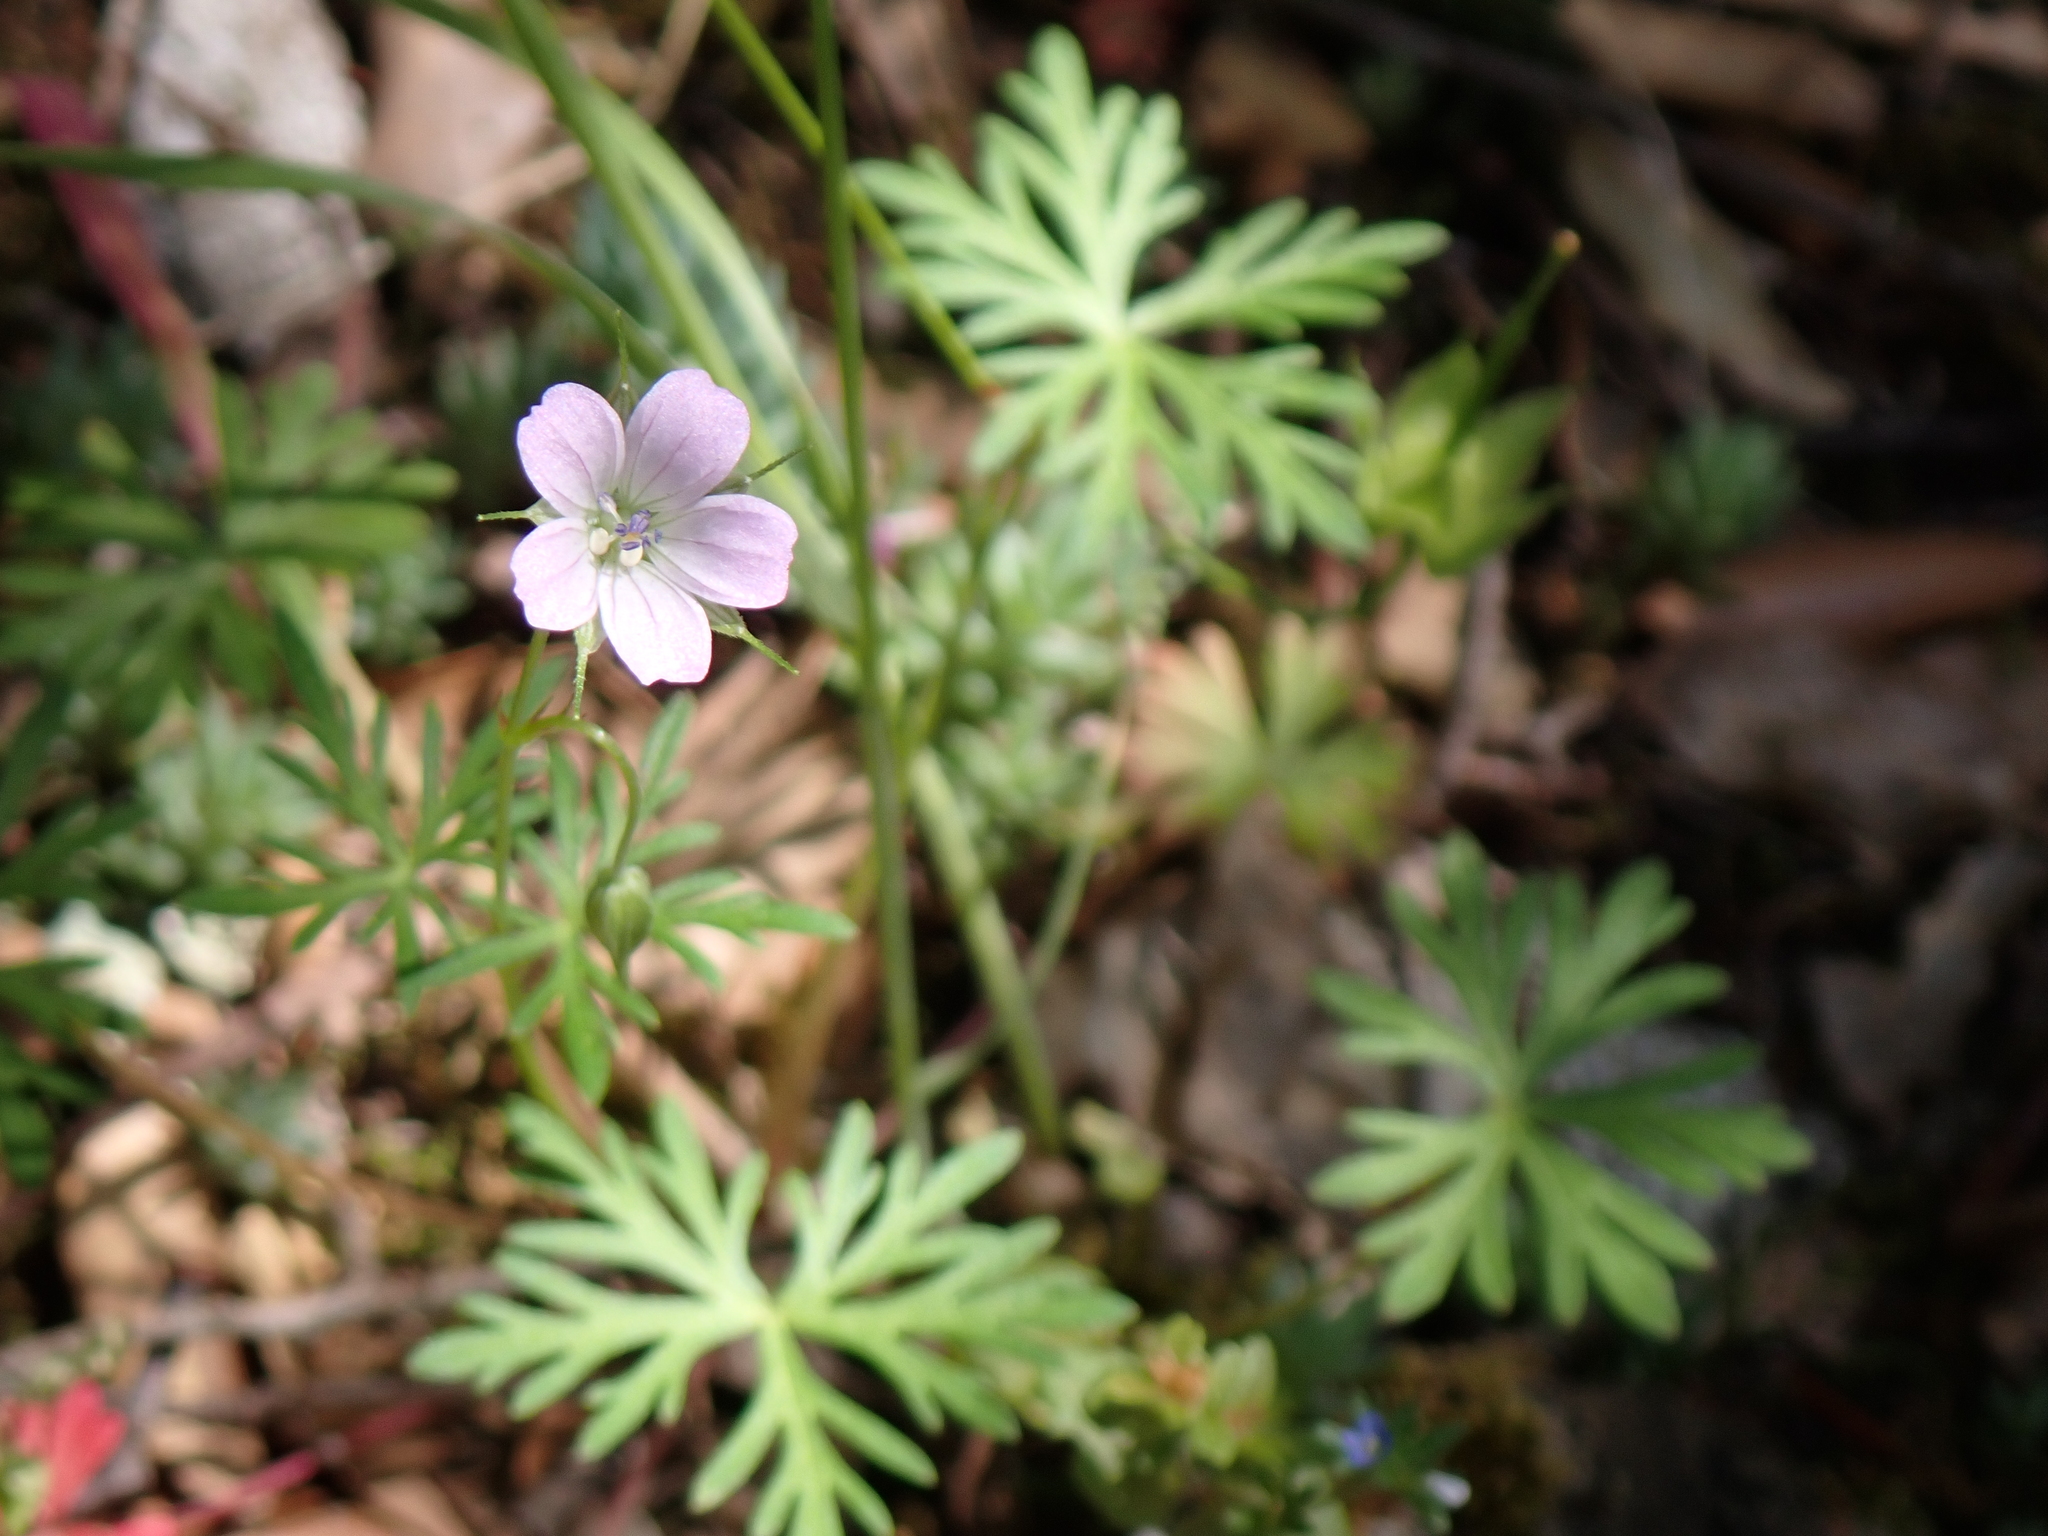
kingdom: Plantae
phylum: Tracheophyta
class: Magnoliopsida
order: Geraniales
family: Geraniaceae
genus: Geranium
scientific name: Geranium columbinum
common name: Long-stalked crane's-bill
